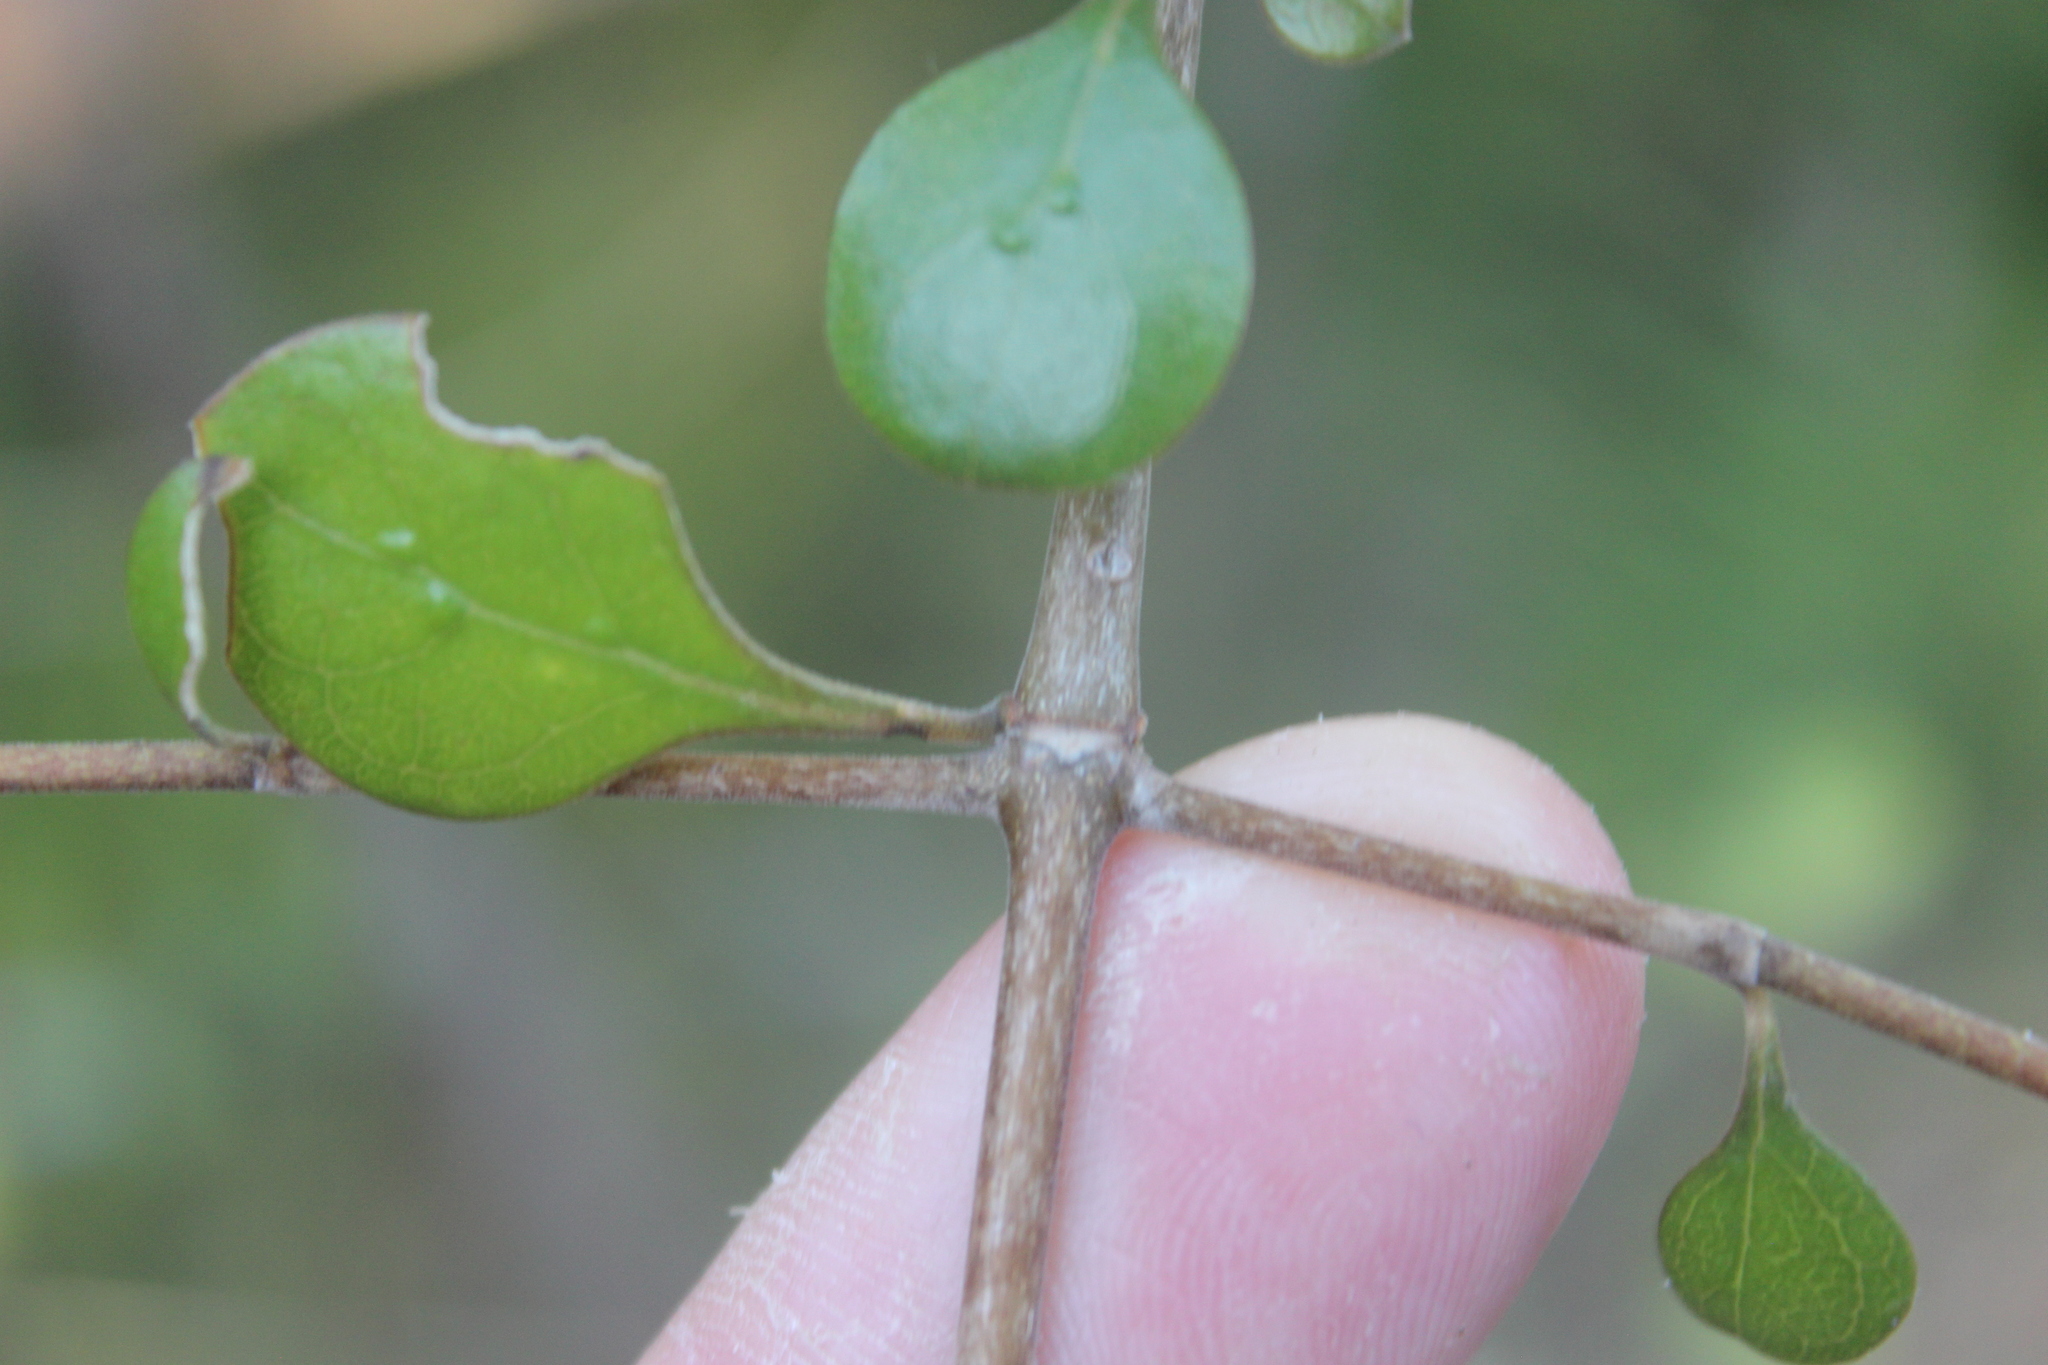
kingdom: Plantae
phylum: Tracheophyta
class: Magnoliopsida
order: Gentianales
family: Rubiaceae
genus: Coprosma
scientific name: Coprosma crassifolia
